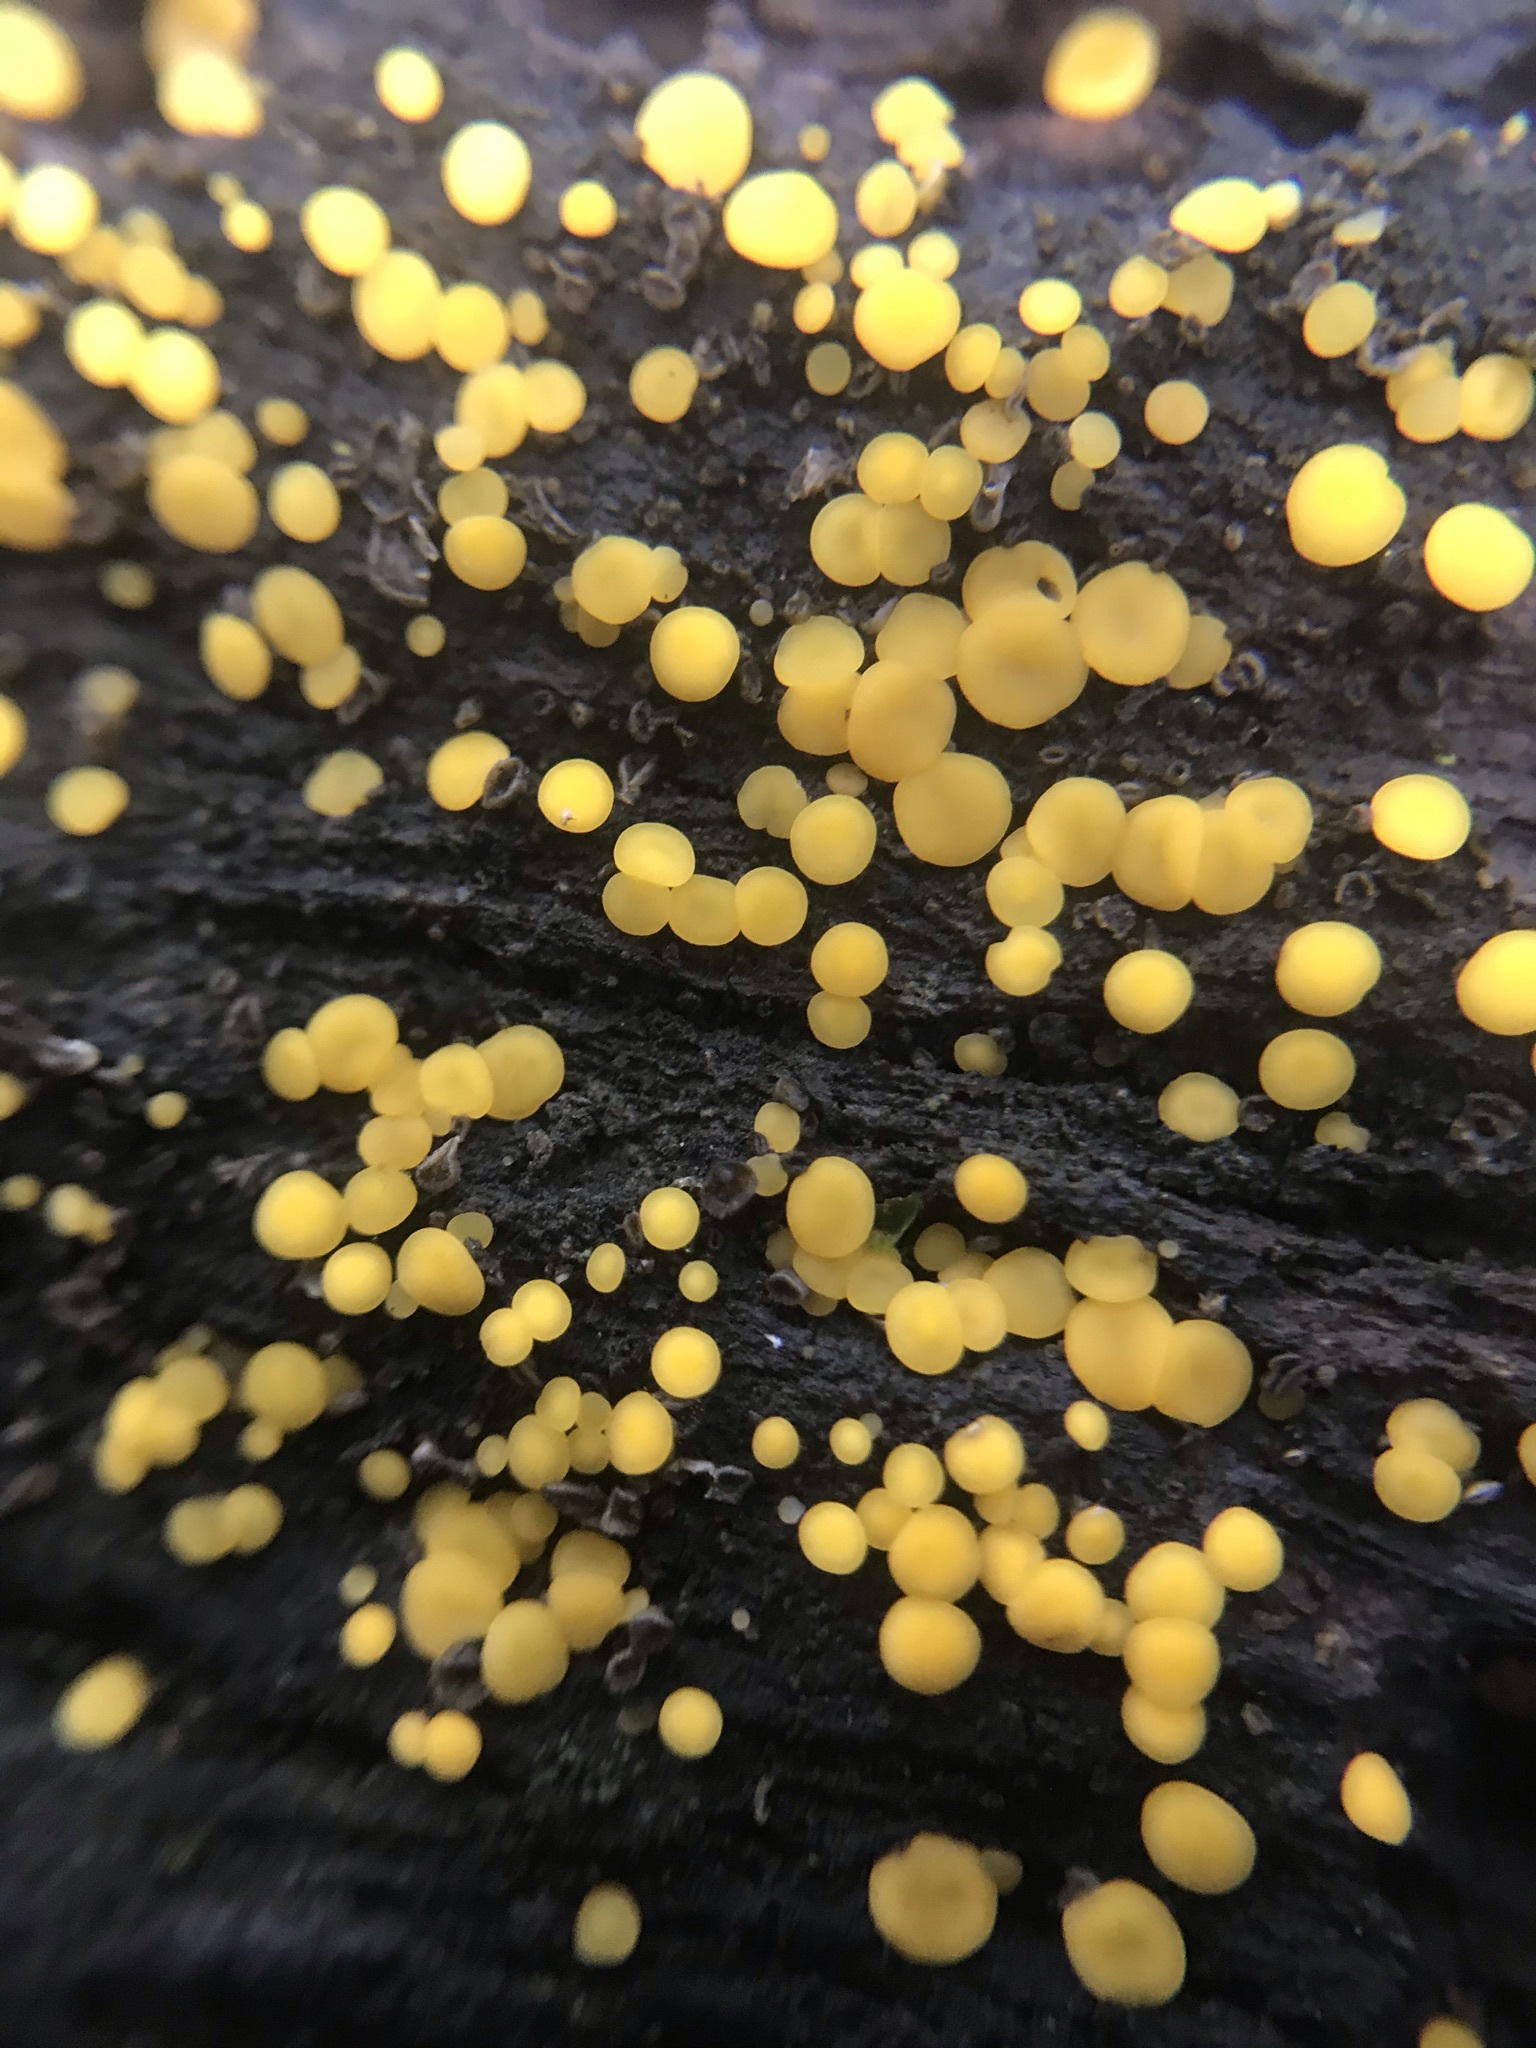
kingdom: Fungi
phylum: Ascomycota
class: Leotiomycetes
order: Helotiales
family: Pezizellaceae
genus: Calycina
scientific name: Calycina citrina
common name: Yellow fairy cups
